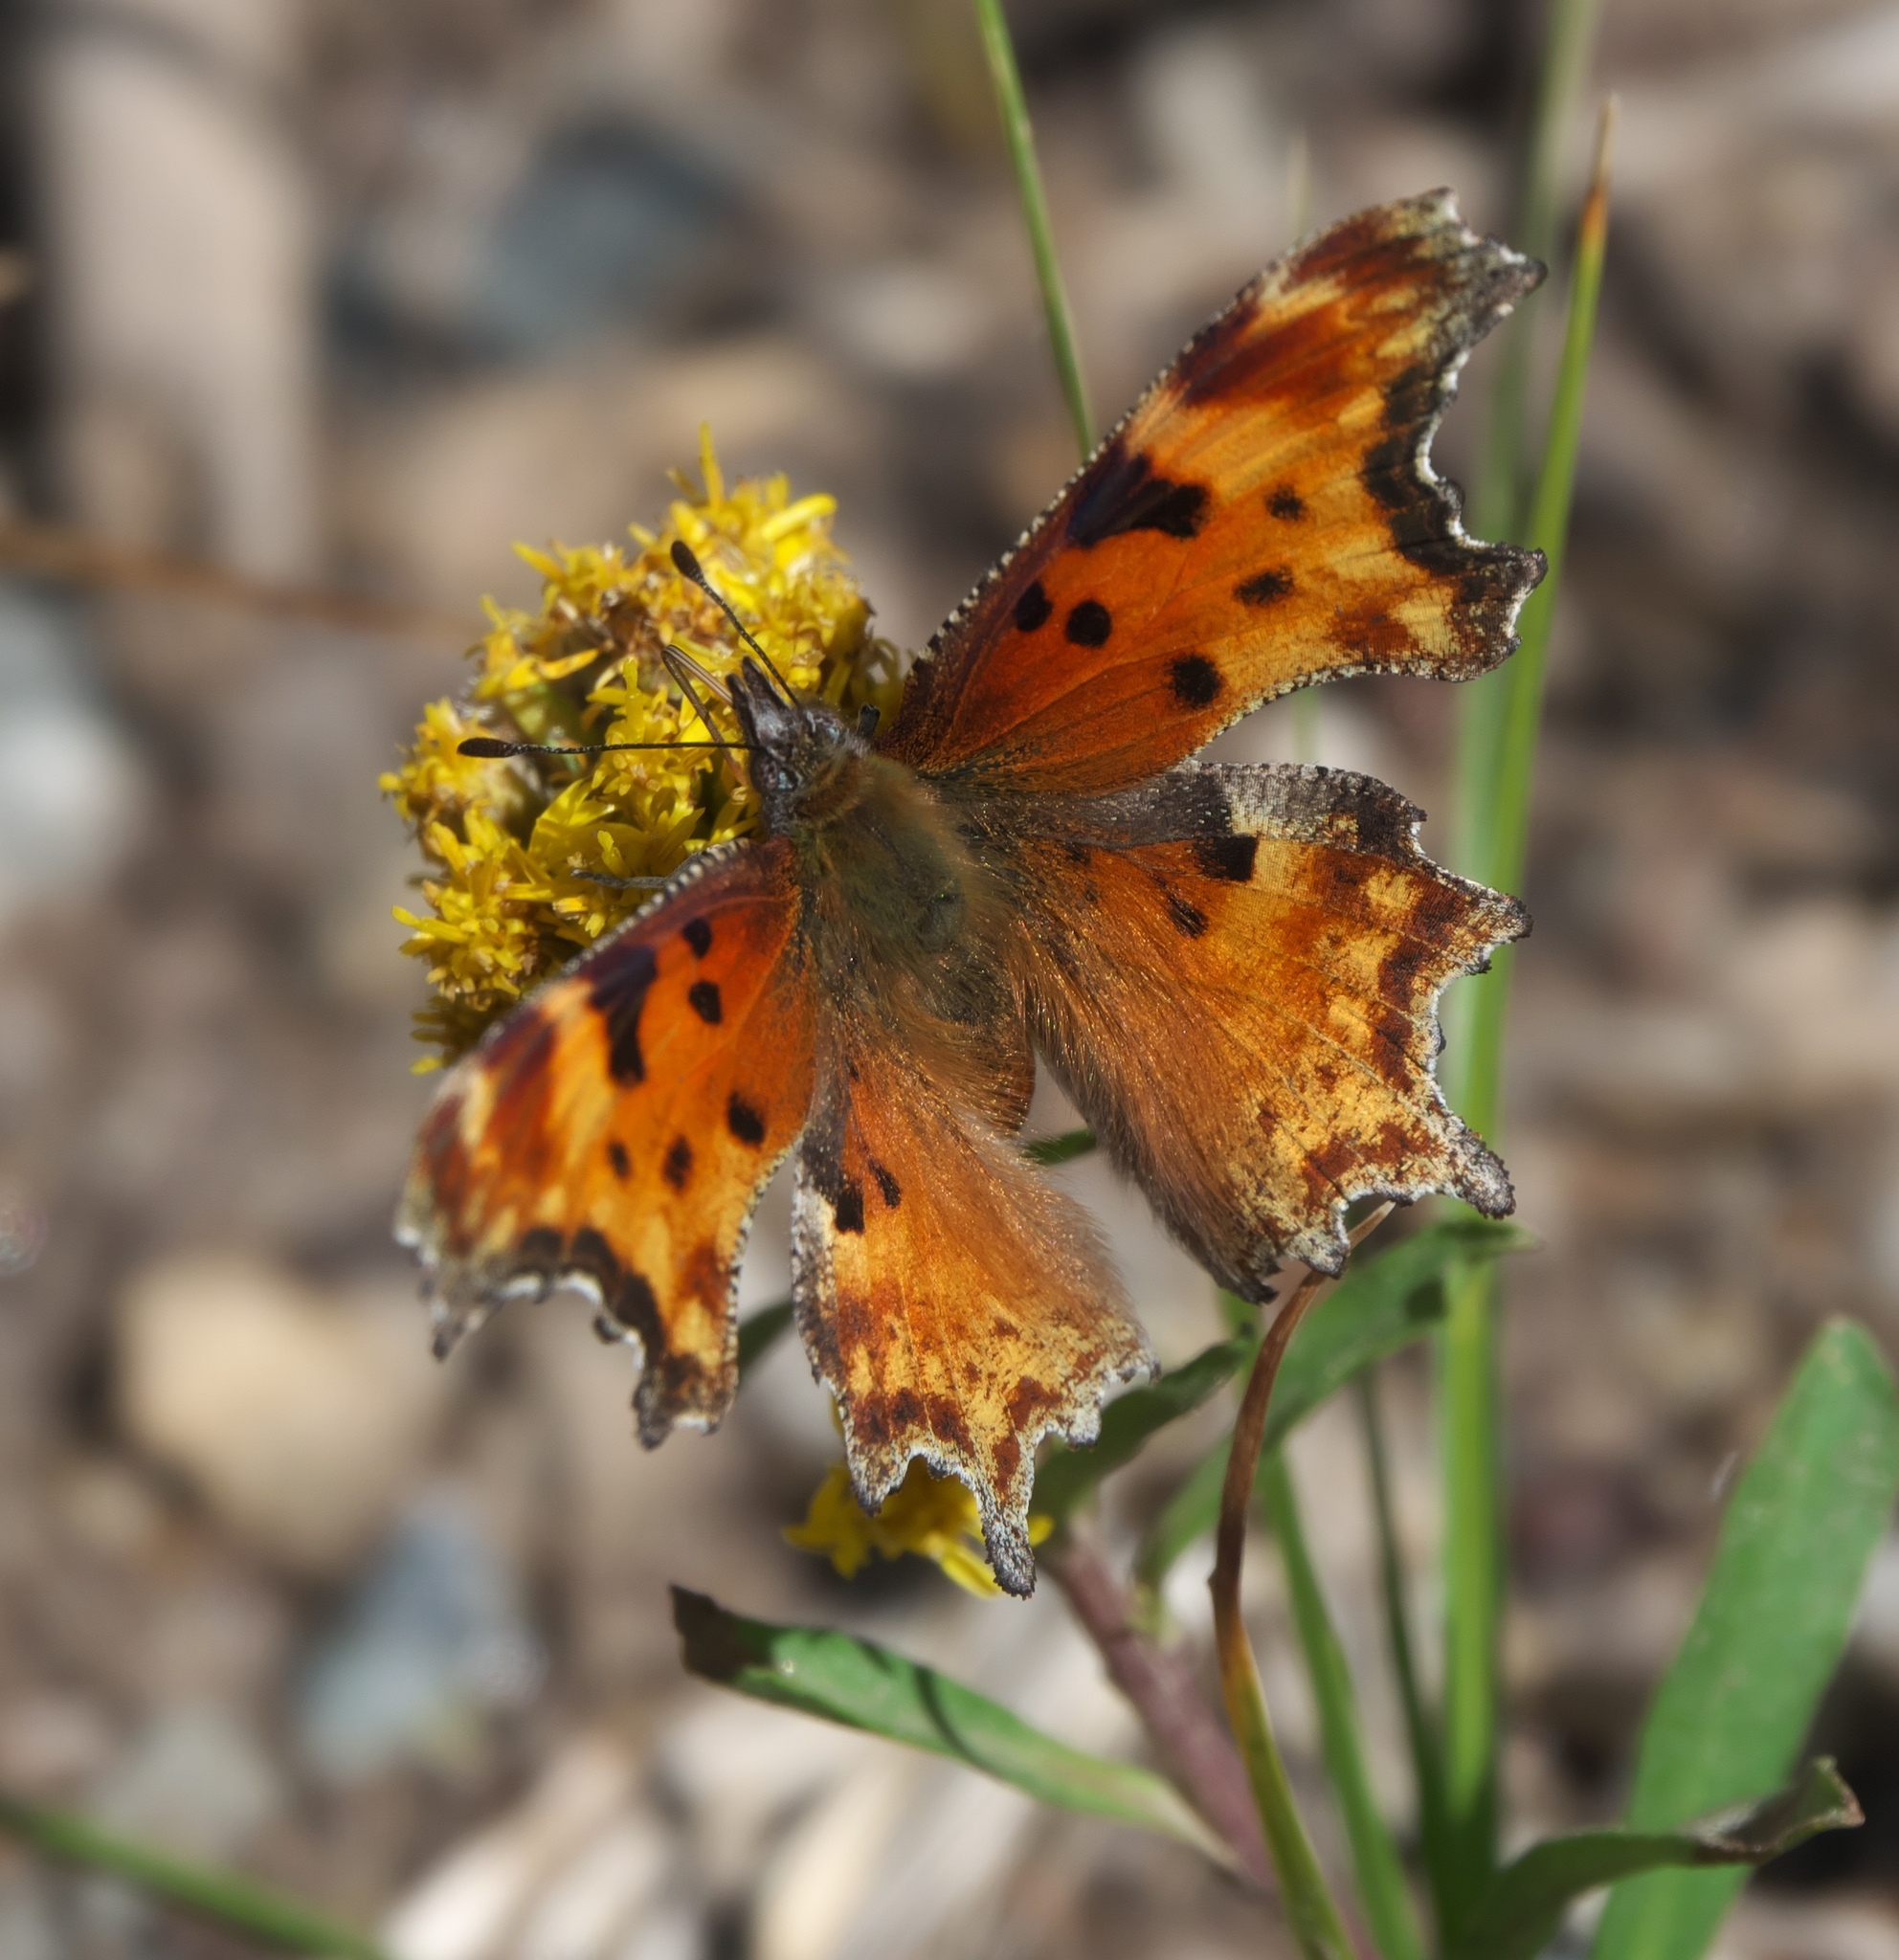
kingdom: Animalia
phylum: Arthropoda
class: Insecta
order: Lepidoptera
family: Nymphalidae
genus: Polygonia
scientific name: Polygonia gracilis
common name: Hoary comma
